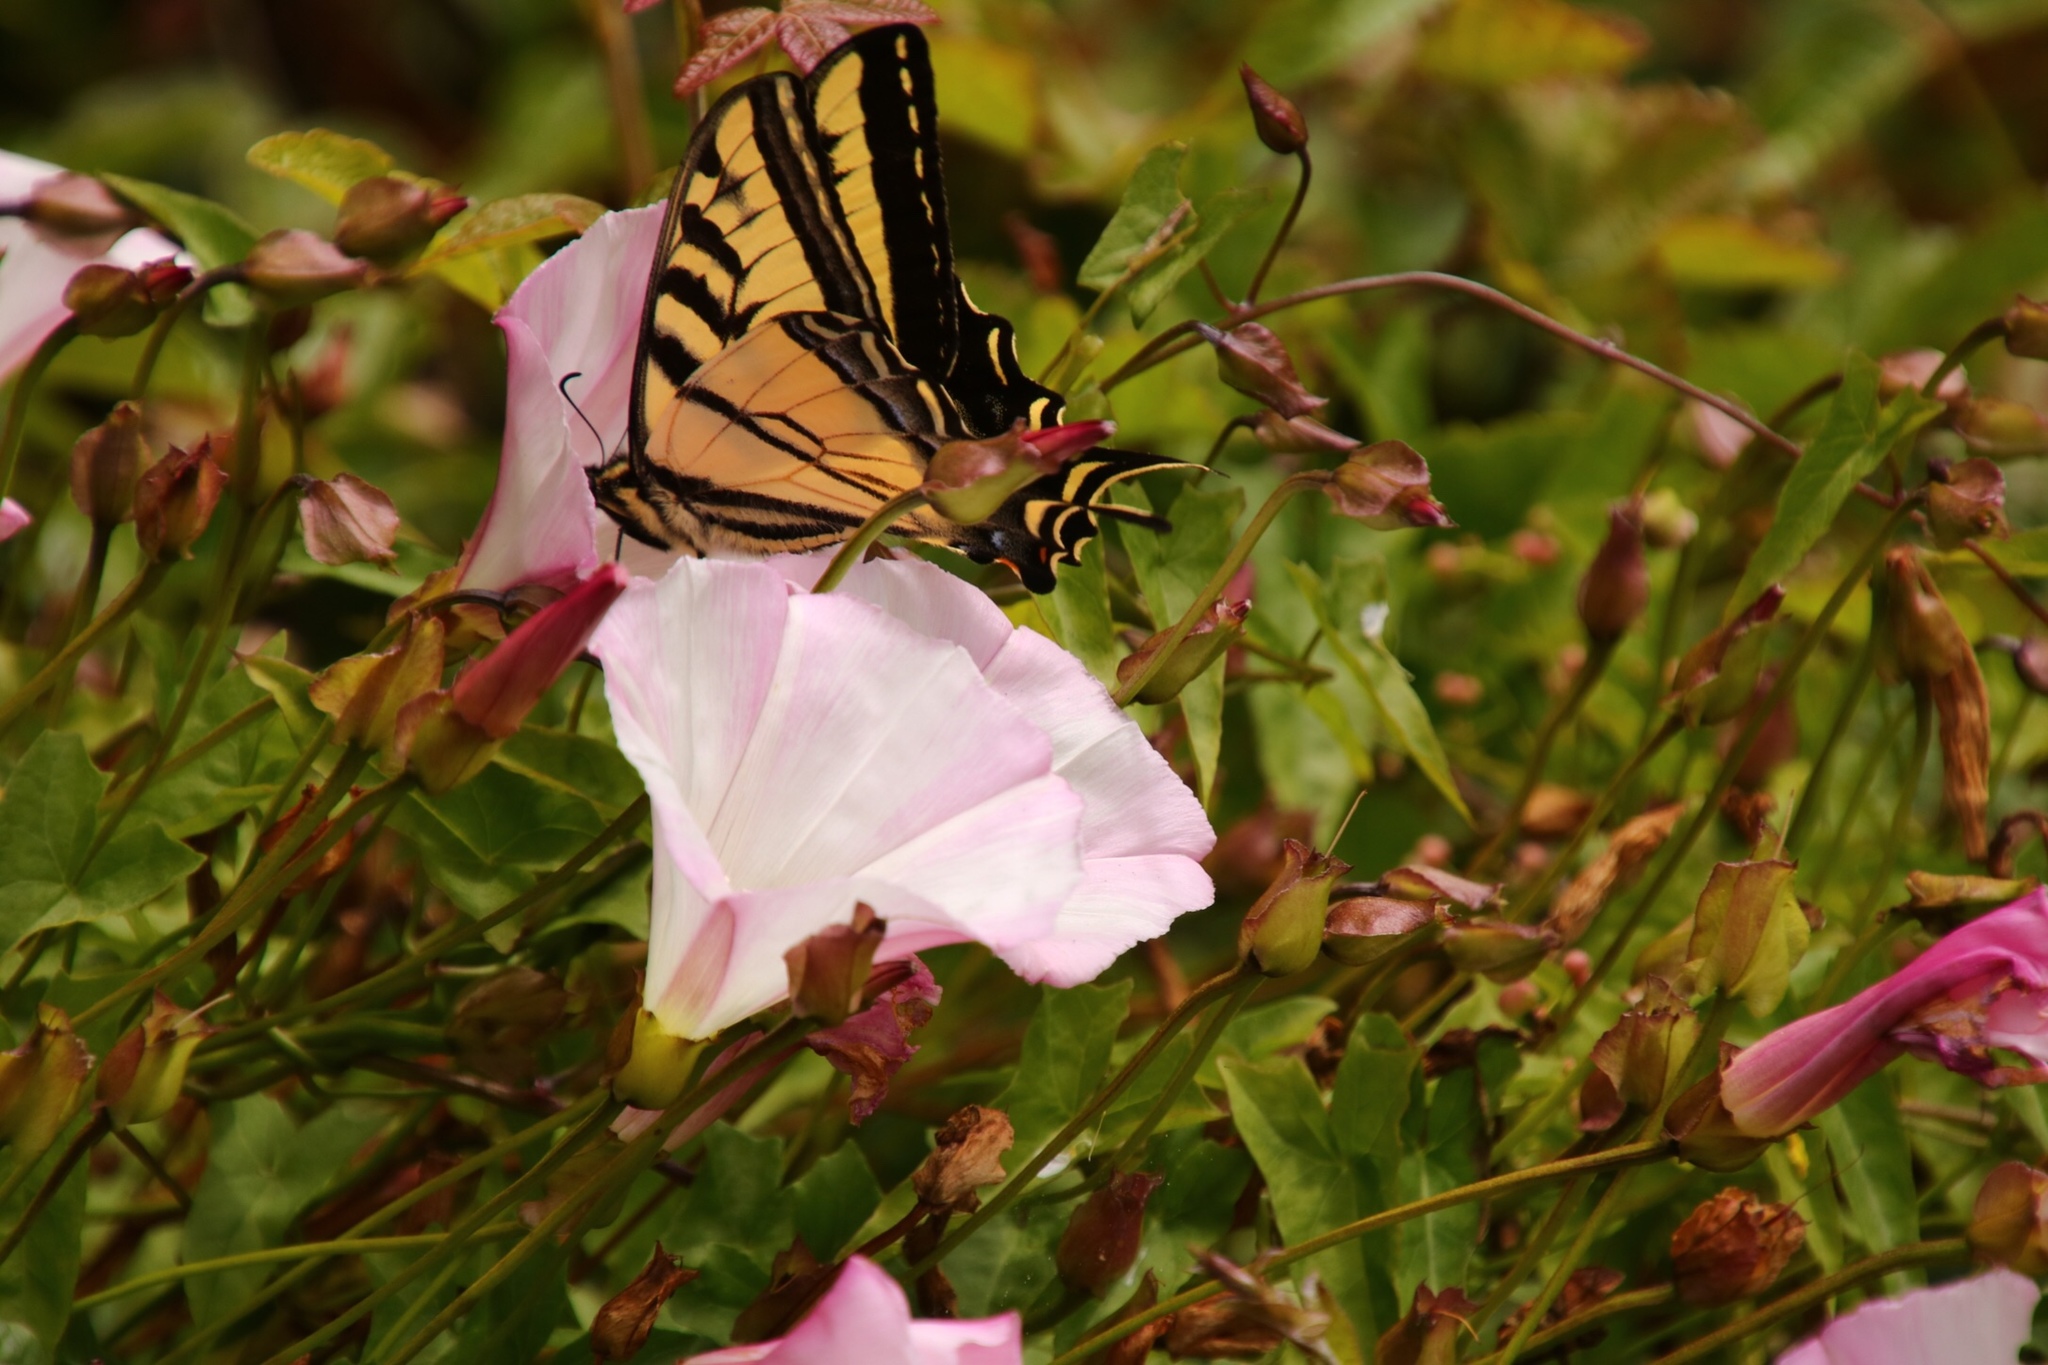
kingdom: Animalia
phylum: Arthropoda
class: Insecta
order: Lepidoptera
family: Papilionidae
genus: Papilio
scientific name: Papilio rutulus
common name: Western tiger swallowtail
